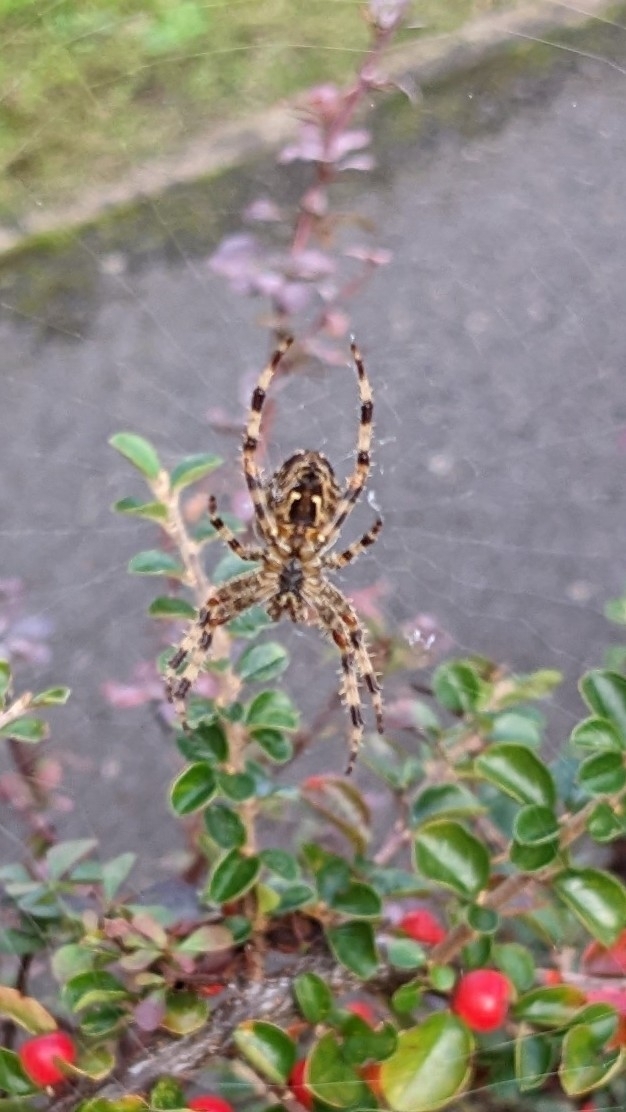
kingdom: Animalia
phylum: Arthropoda
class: Arachnida
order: Araneae
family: Araneidae
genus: Araneus
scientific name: Araneus diadematus
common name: Cross orbweaver
